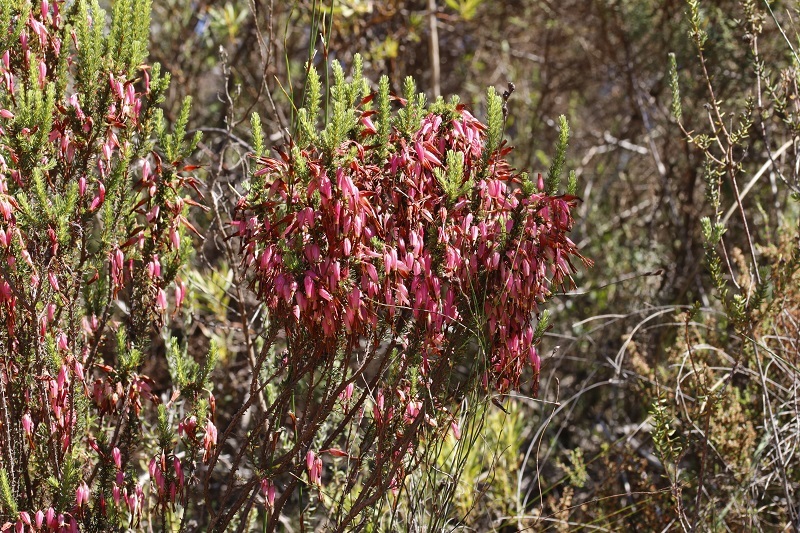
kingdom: Plantae
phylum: Tracheophyta
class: Magnoliopsida
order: Ericales
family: Ericaceae
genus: Erica
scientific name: Erica plukenetii
